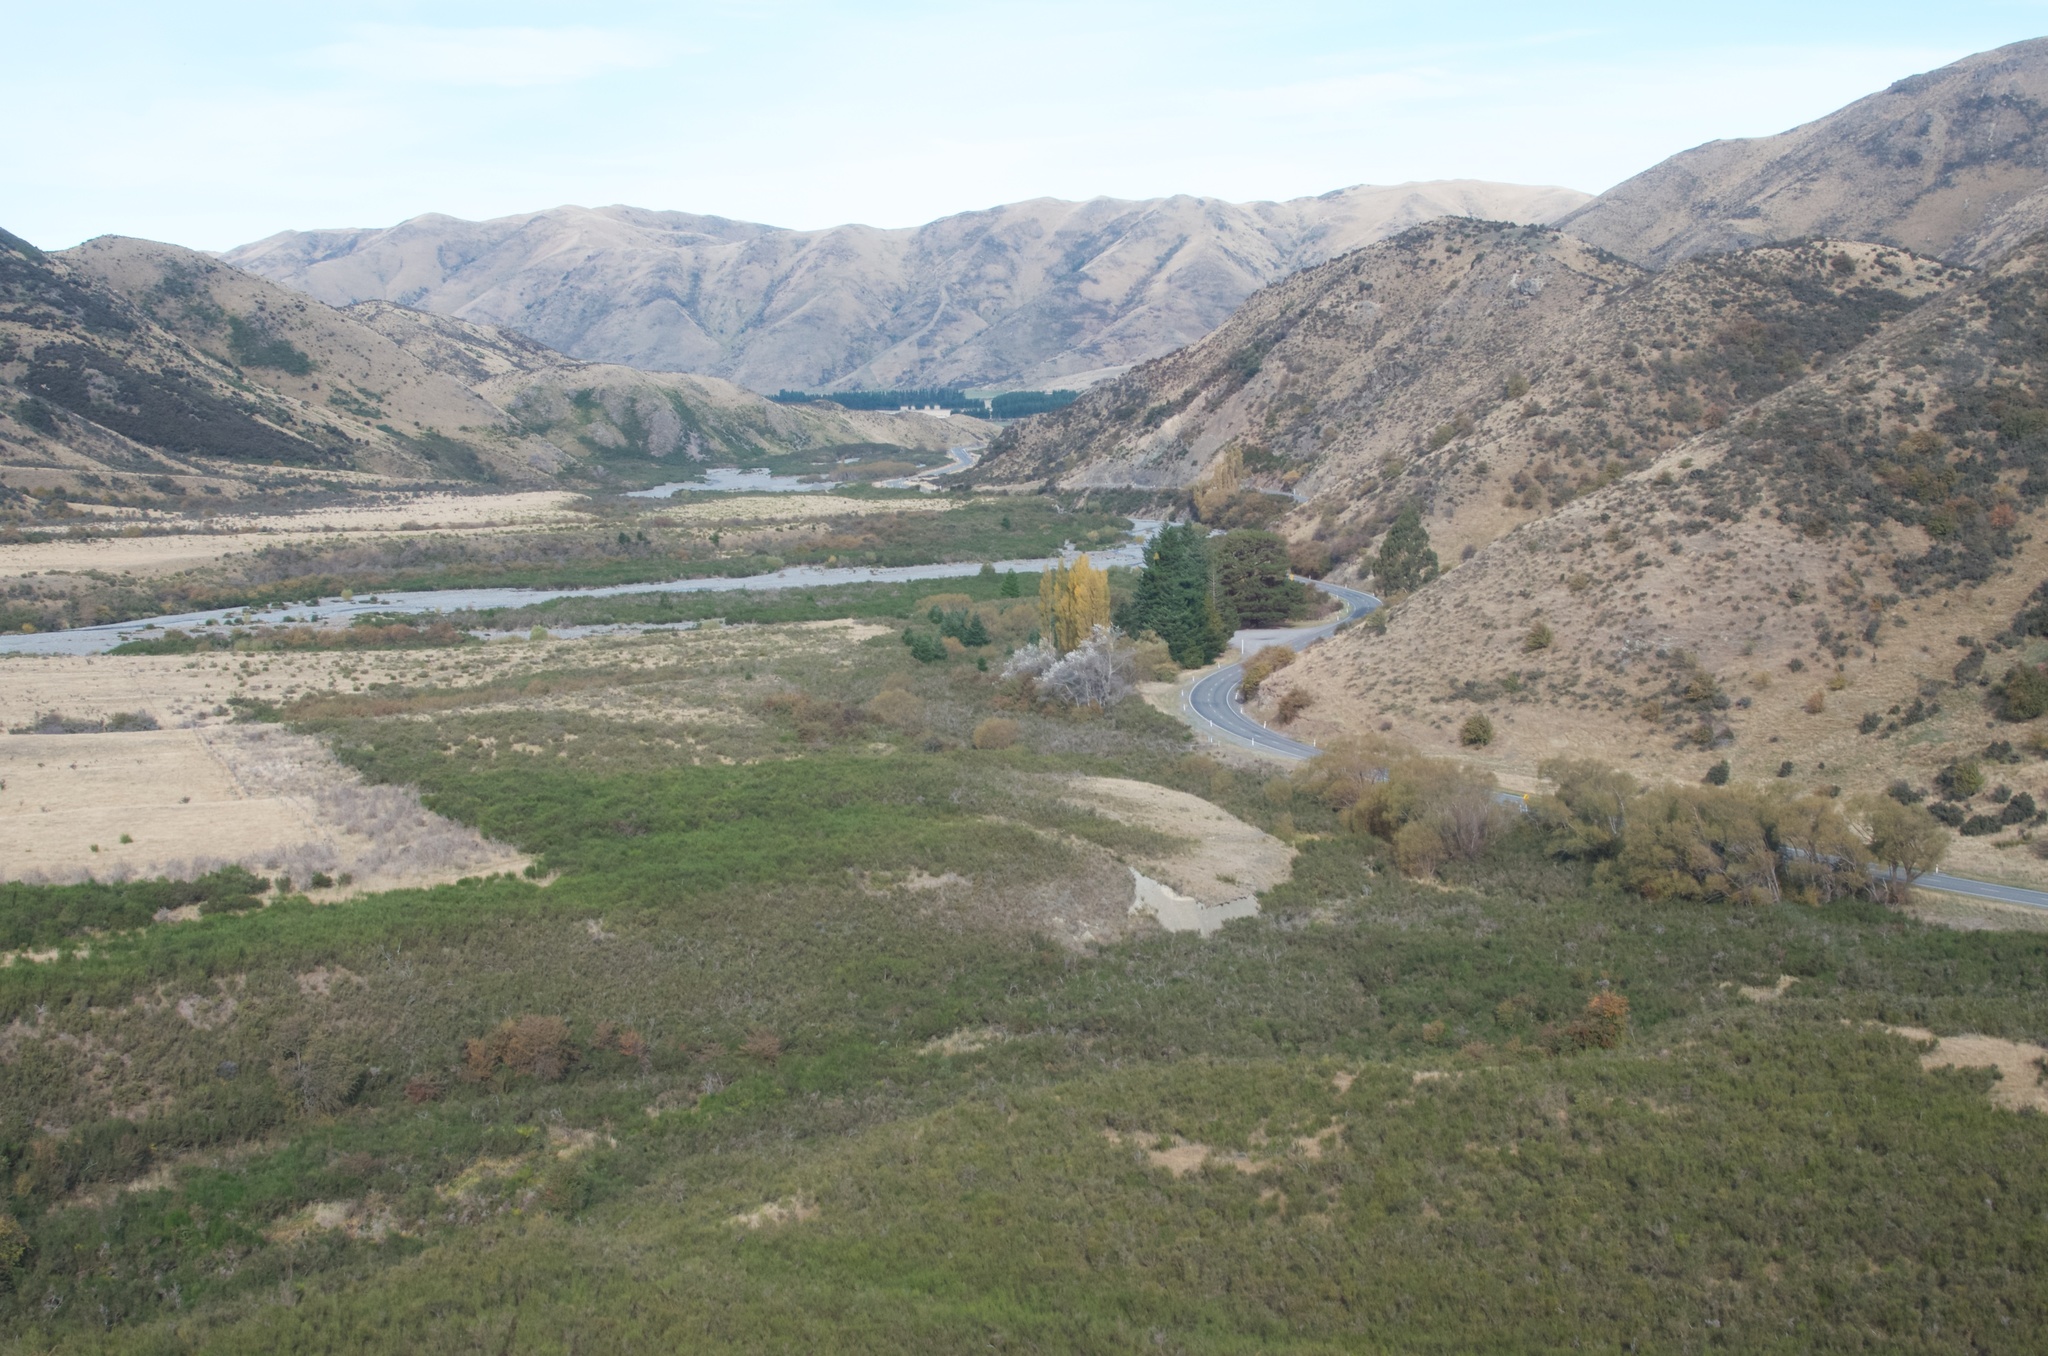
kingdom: Plantae
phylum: Tracheophyta
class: Magnoliopsida
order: Fabales
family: Fabaceae
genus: Cytisus
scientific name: Cytisus scoparius
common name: Scotch broom
